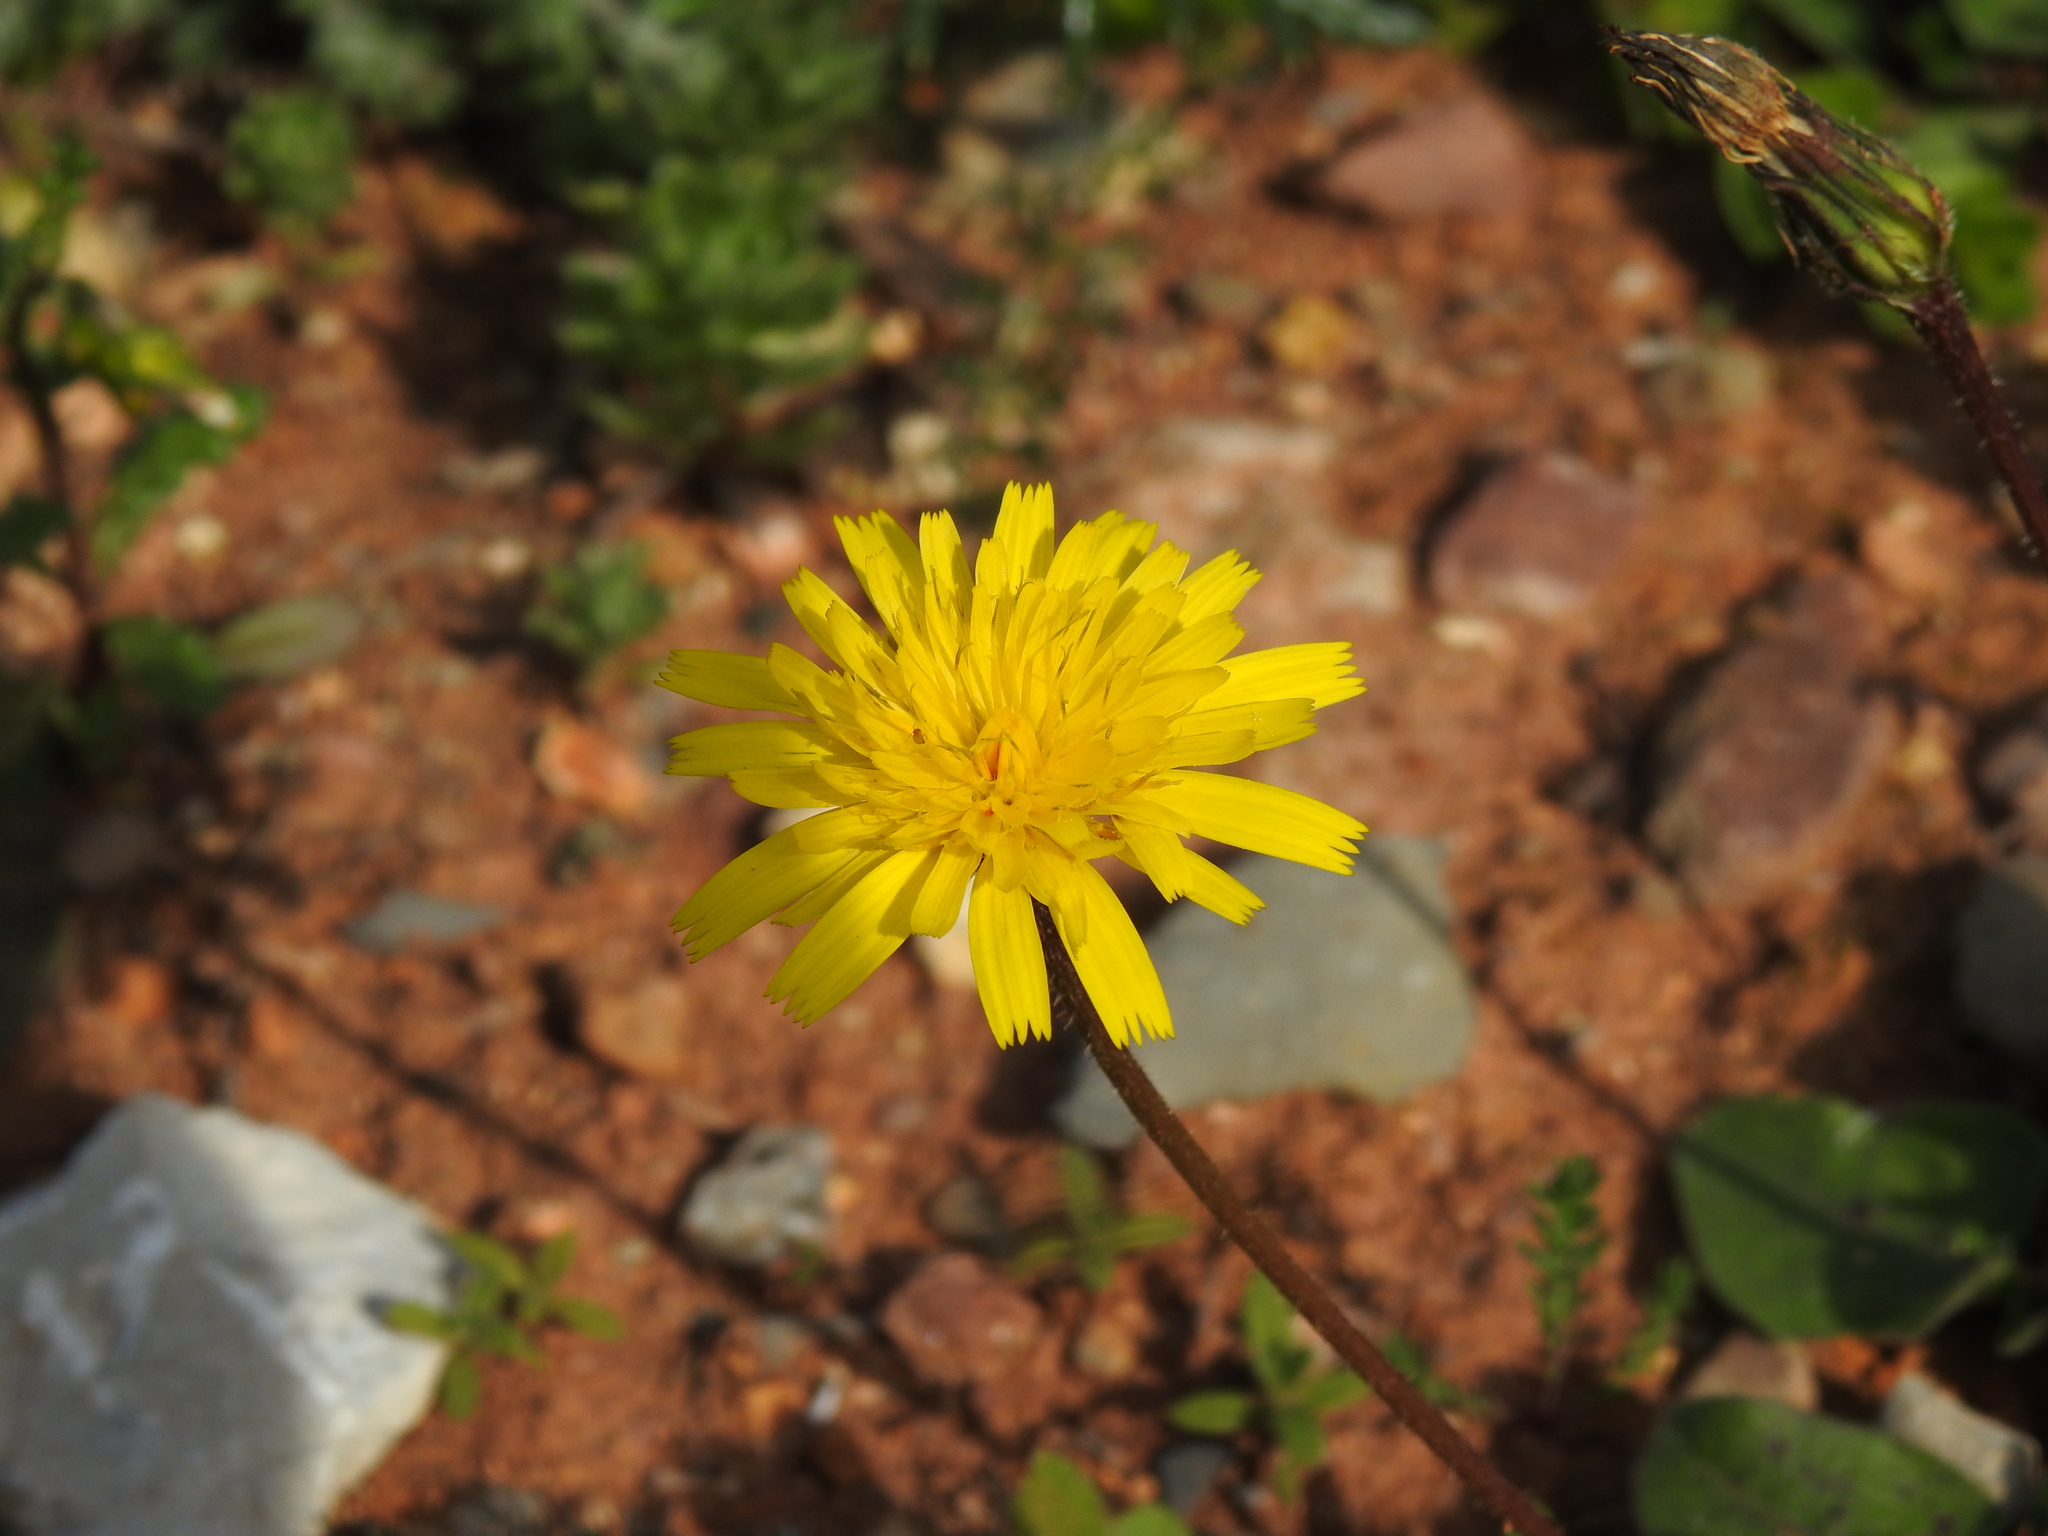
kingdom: Plantae
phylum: Tracheophyta
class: Magnoliopsida
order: Asterales
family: Asteraceae
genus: Leontodon
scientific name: Leontodon tuberosus
